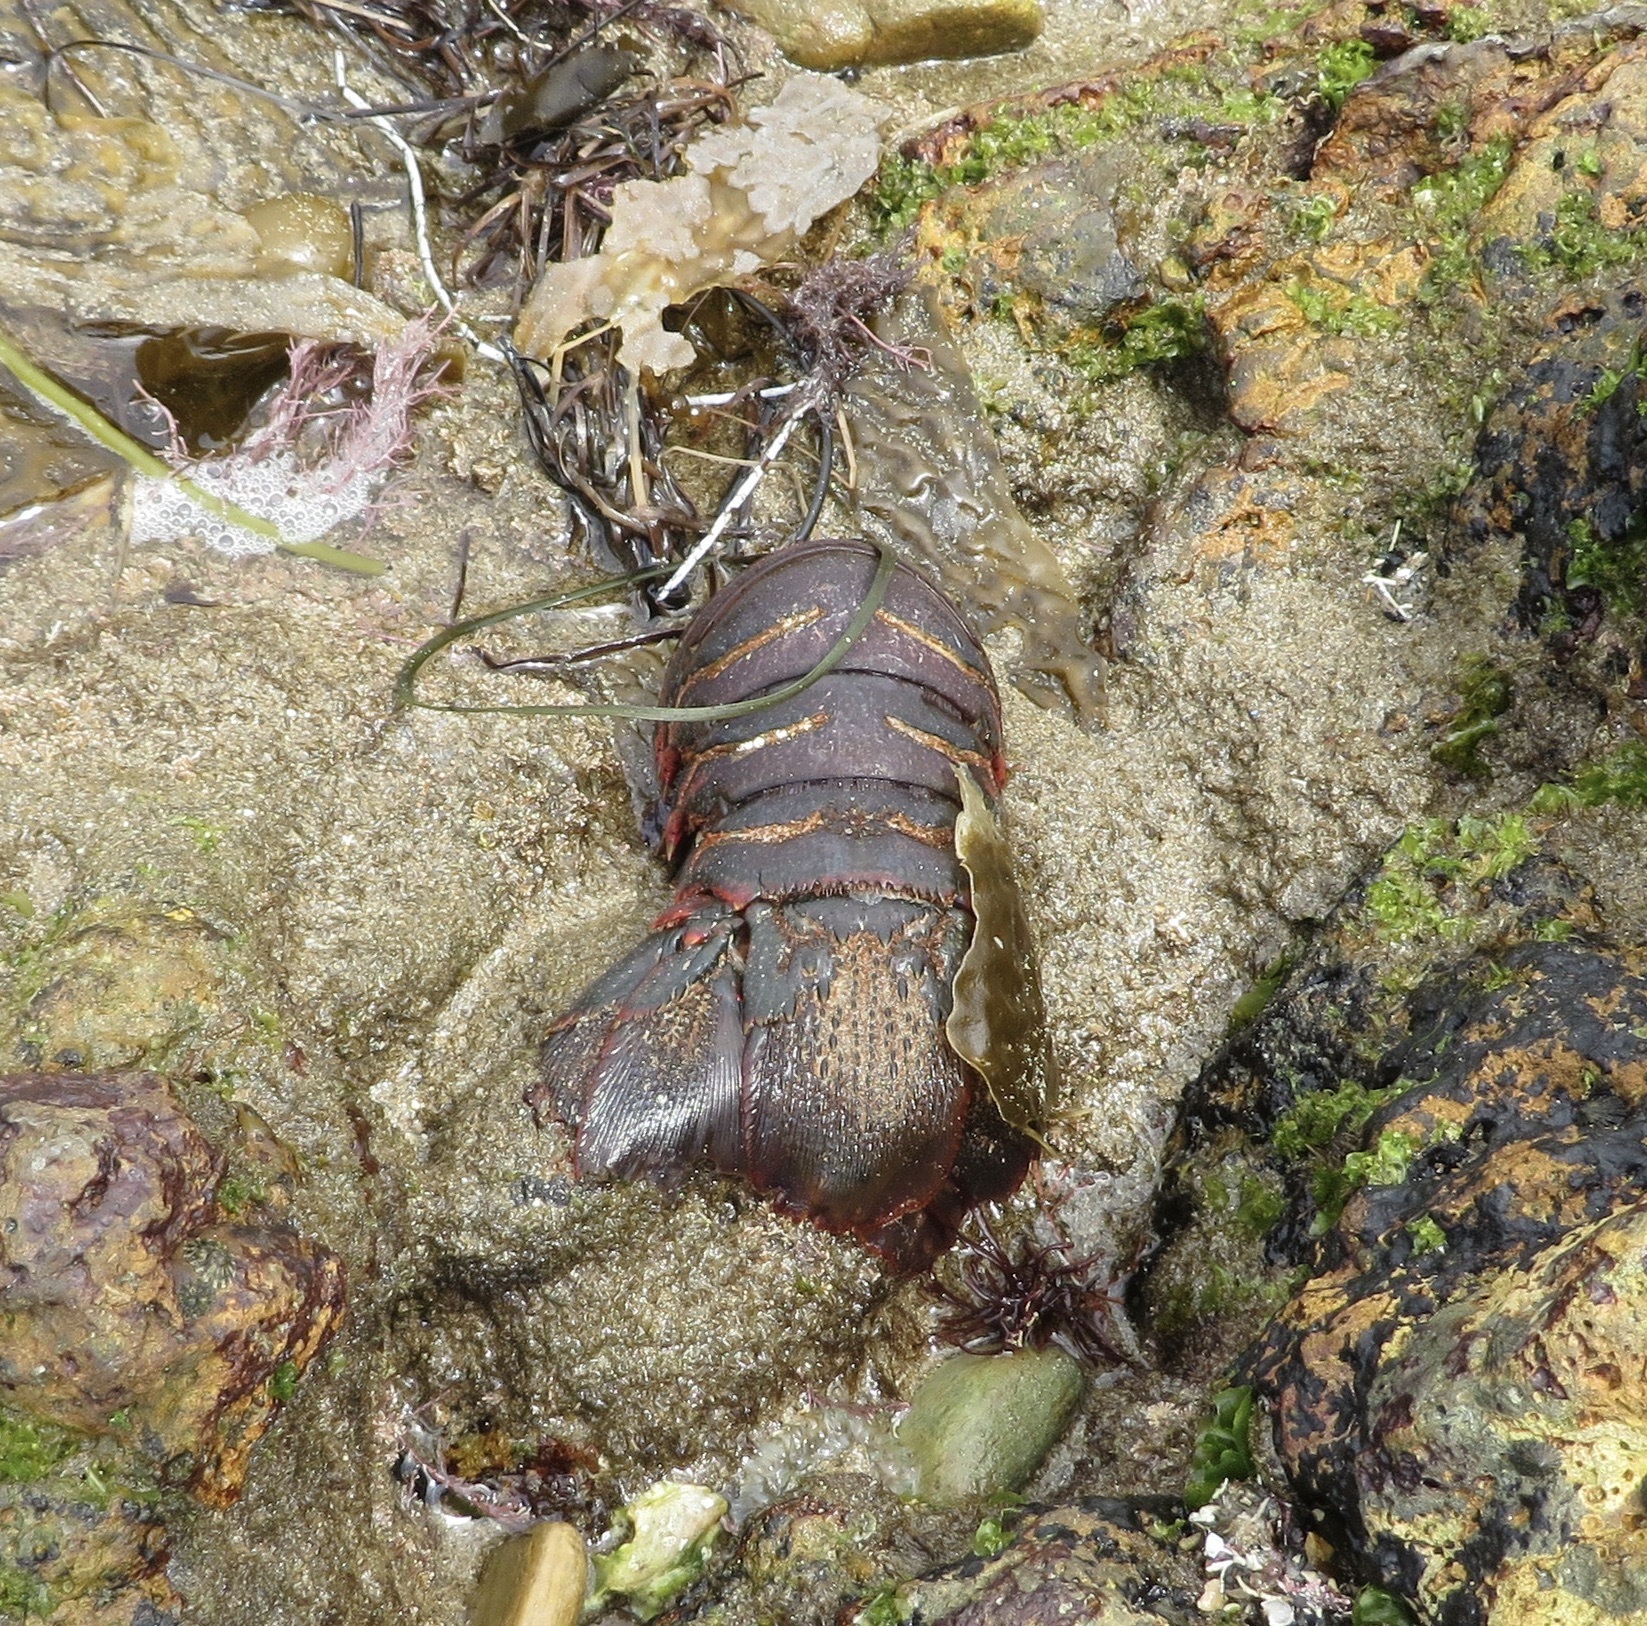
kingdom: Animalia
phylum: Arthropoda
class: Malacostraca
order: Decapoda
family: Palinuridae
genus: Panulirus
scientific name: Panulirus interruptus
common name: California spiny lobster
